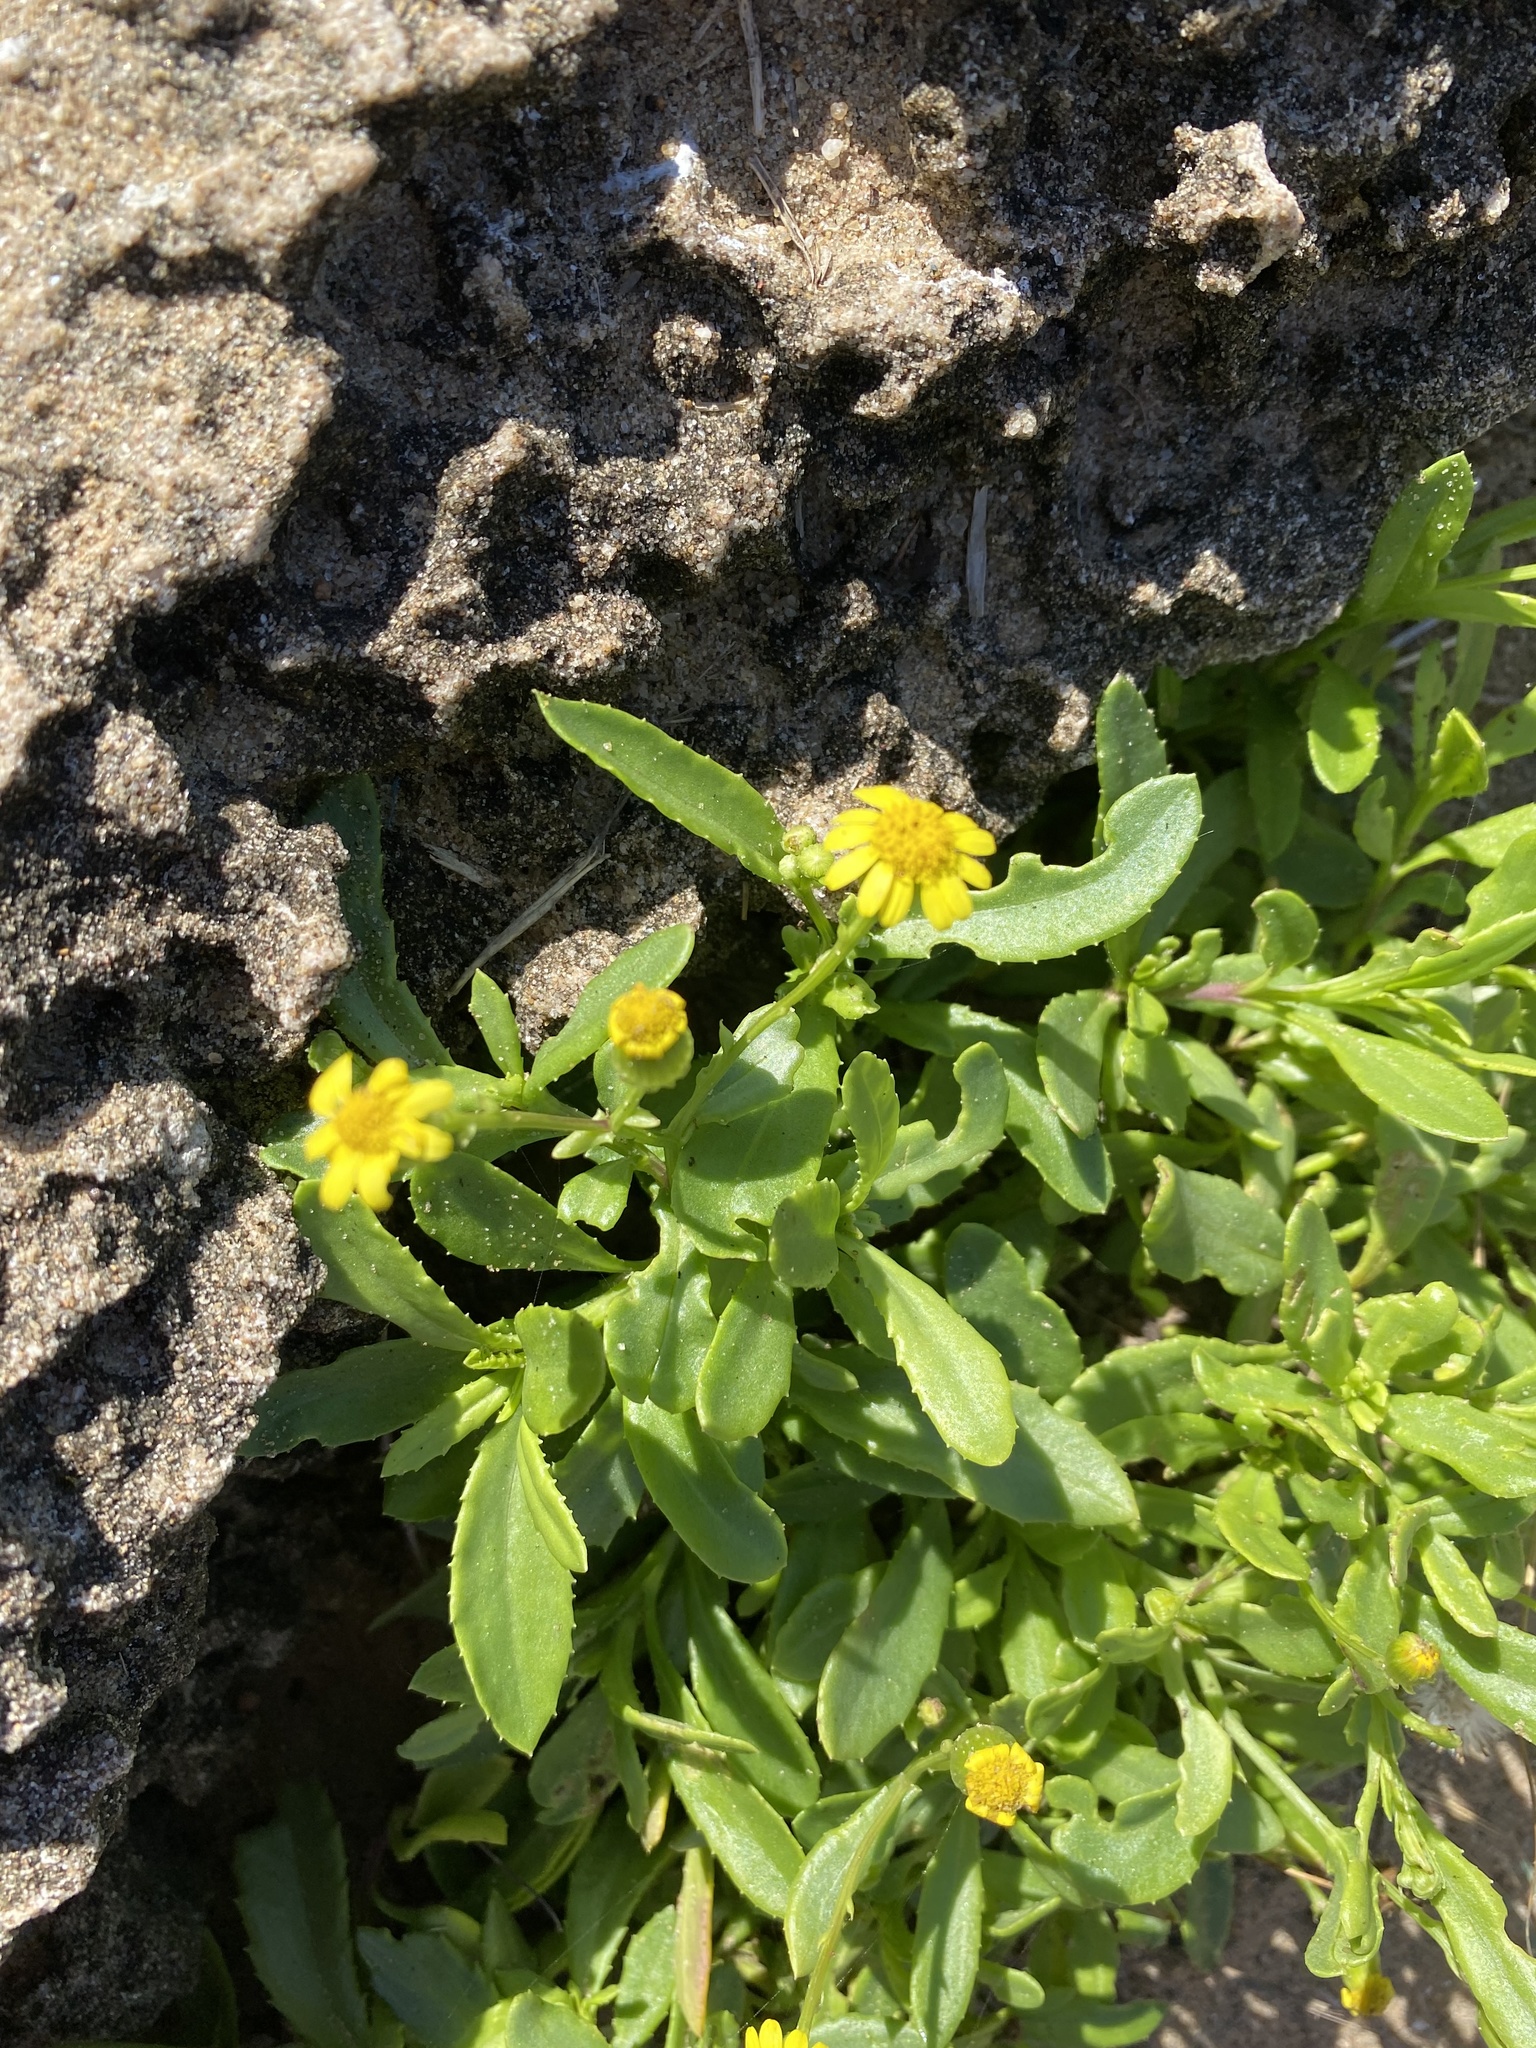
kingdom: Plantae
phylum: Tracheophyta
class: Magnoliopsida
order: Asterales
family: Asteraceae
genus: Senecio
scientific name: Senecio skirrhodon
